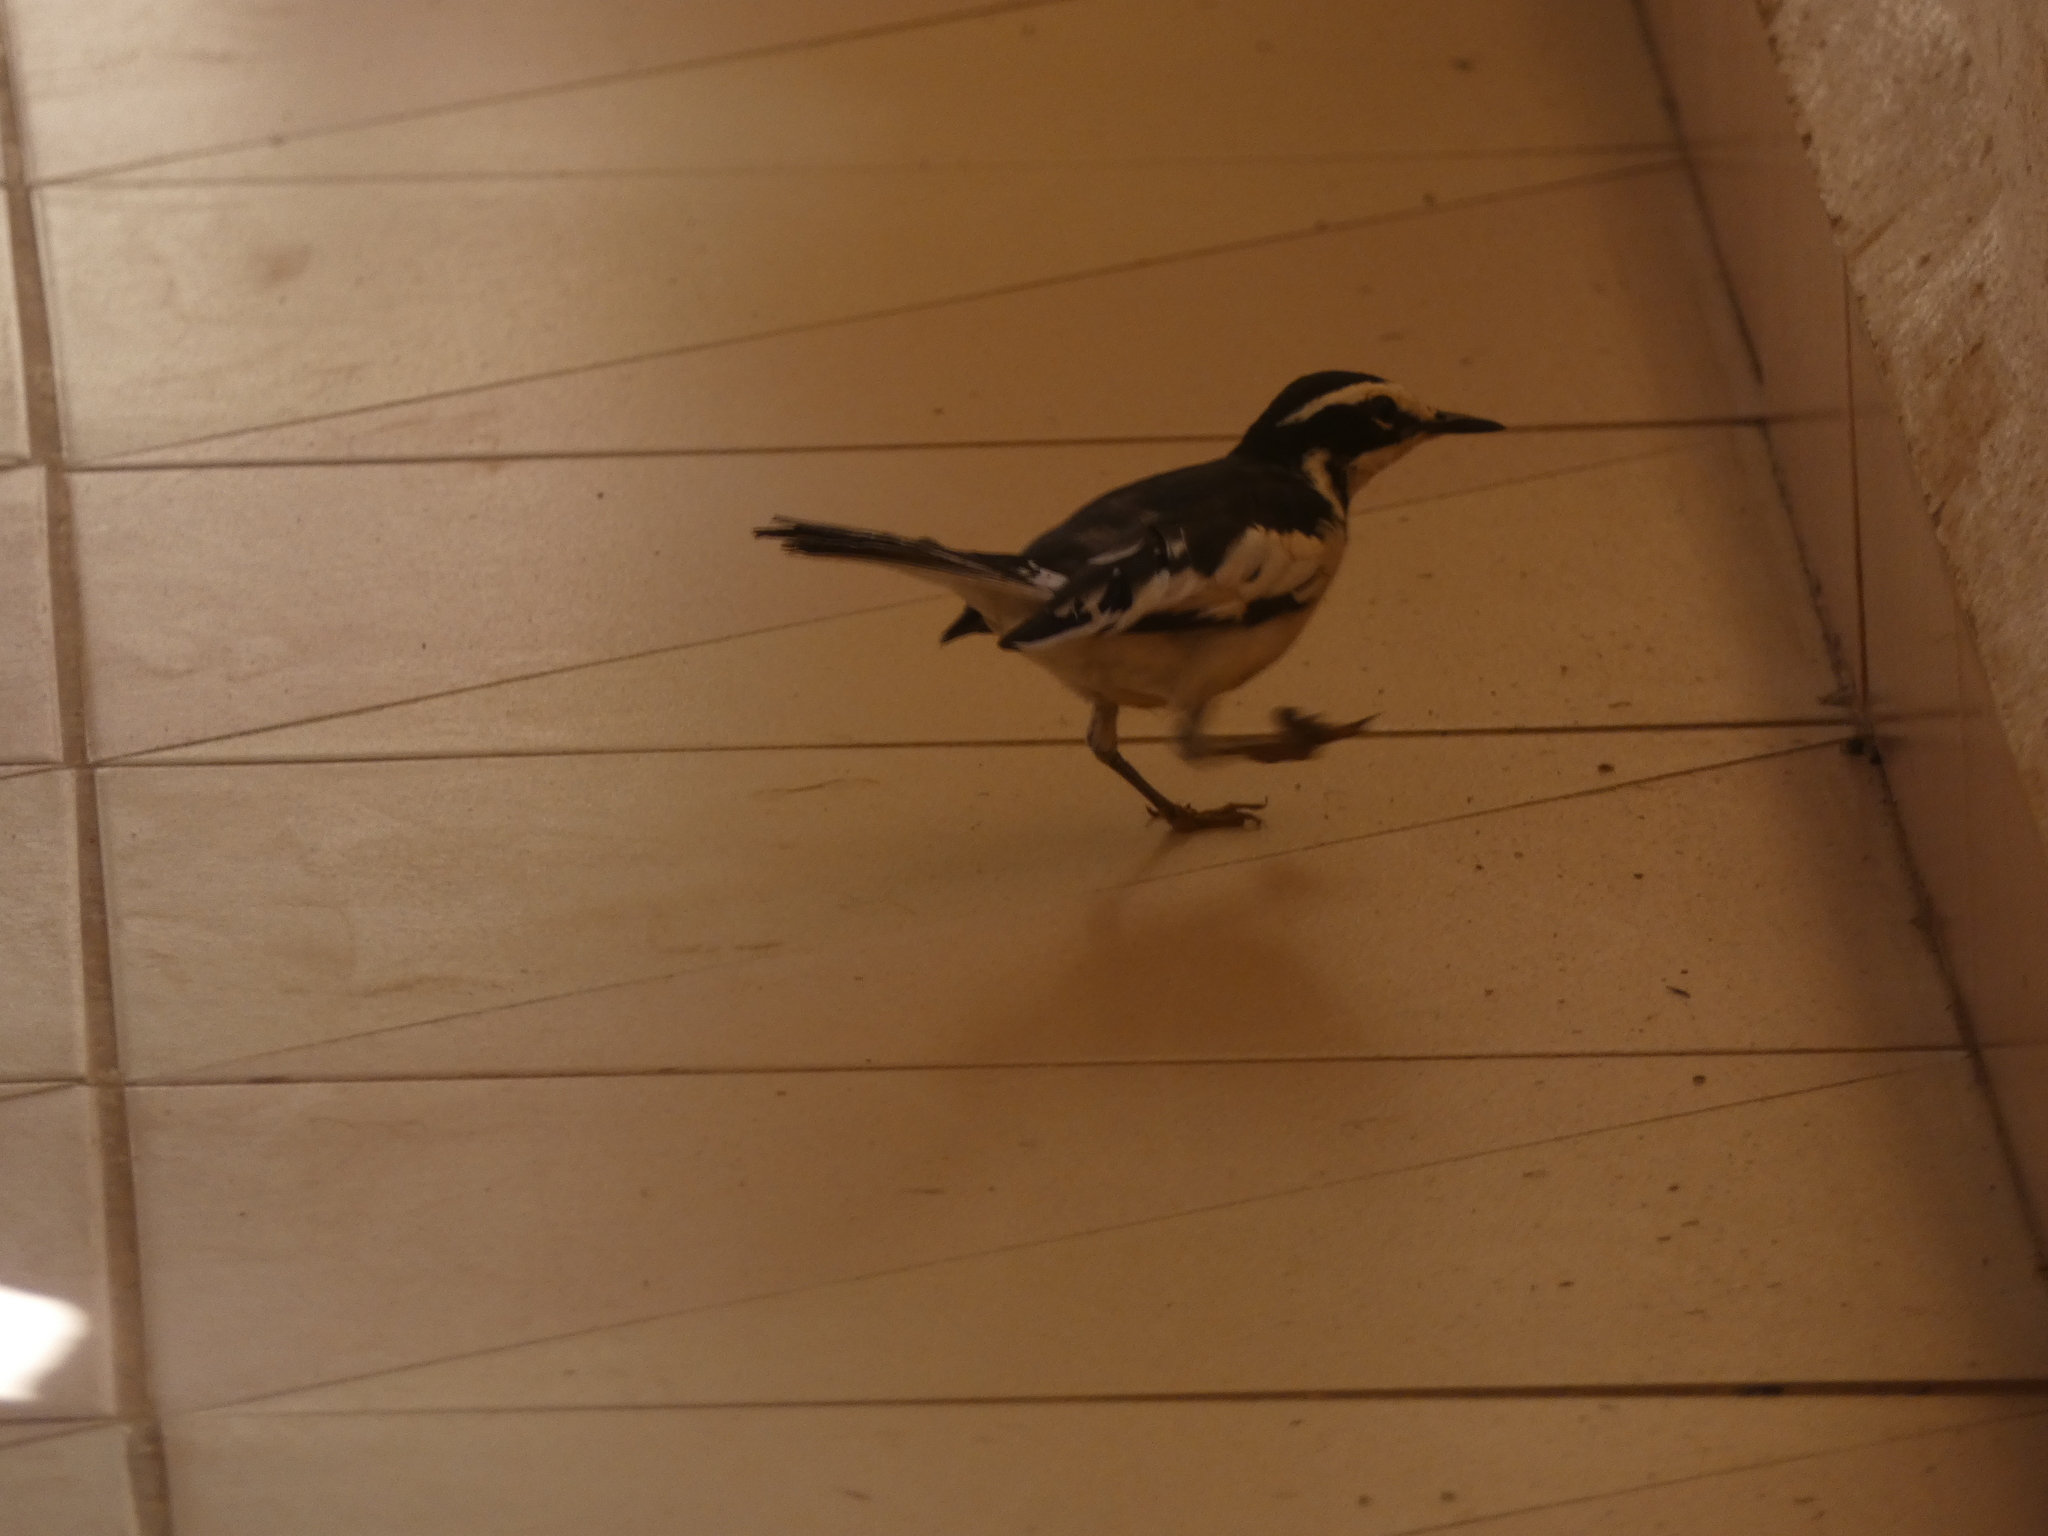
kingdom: Animalia
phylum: Chordata
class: Aves
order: Passeriformes
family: Motacillidae
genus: Motacilla
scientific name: Motacilla aguimp
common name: African pied wagtail
